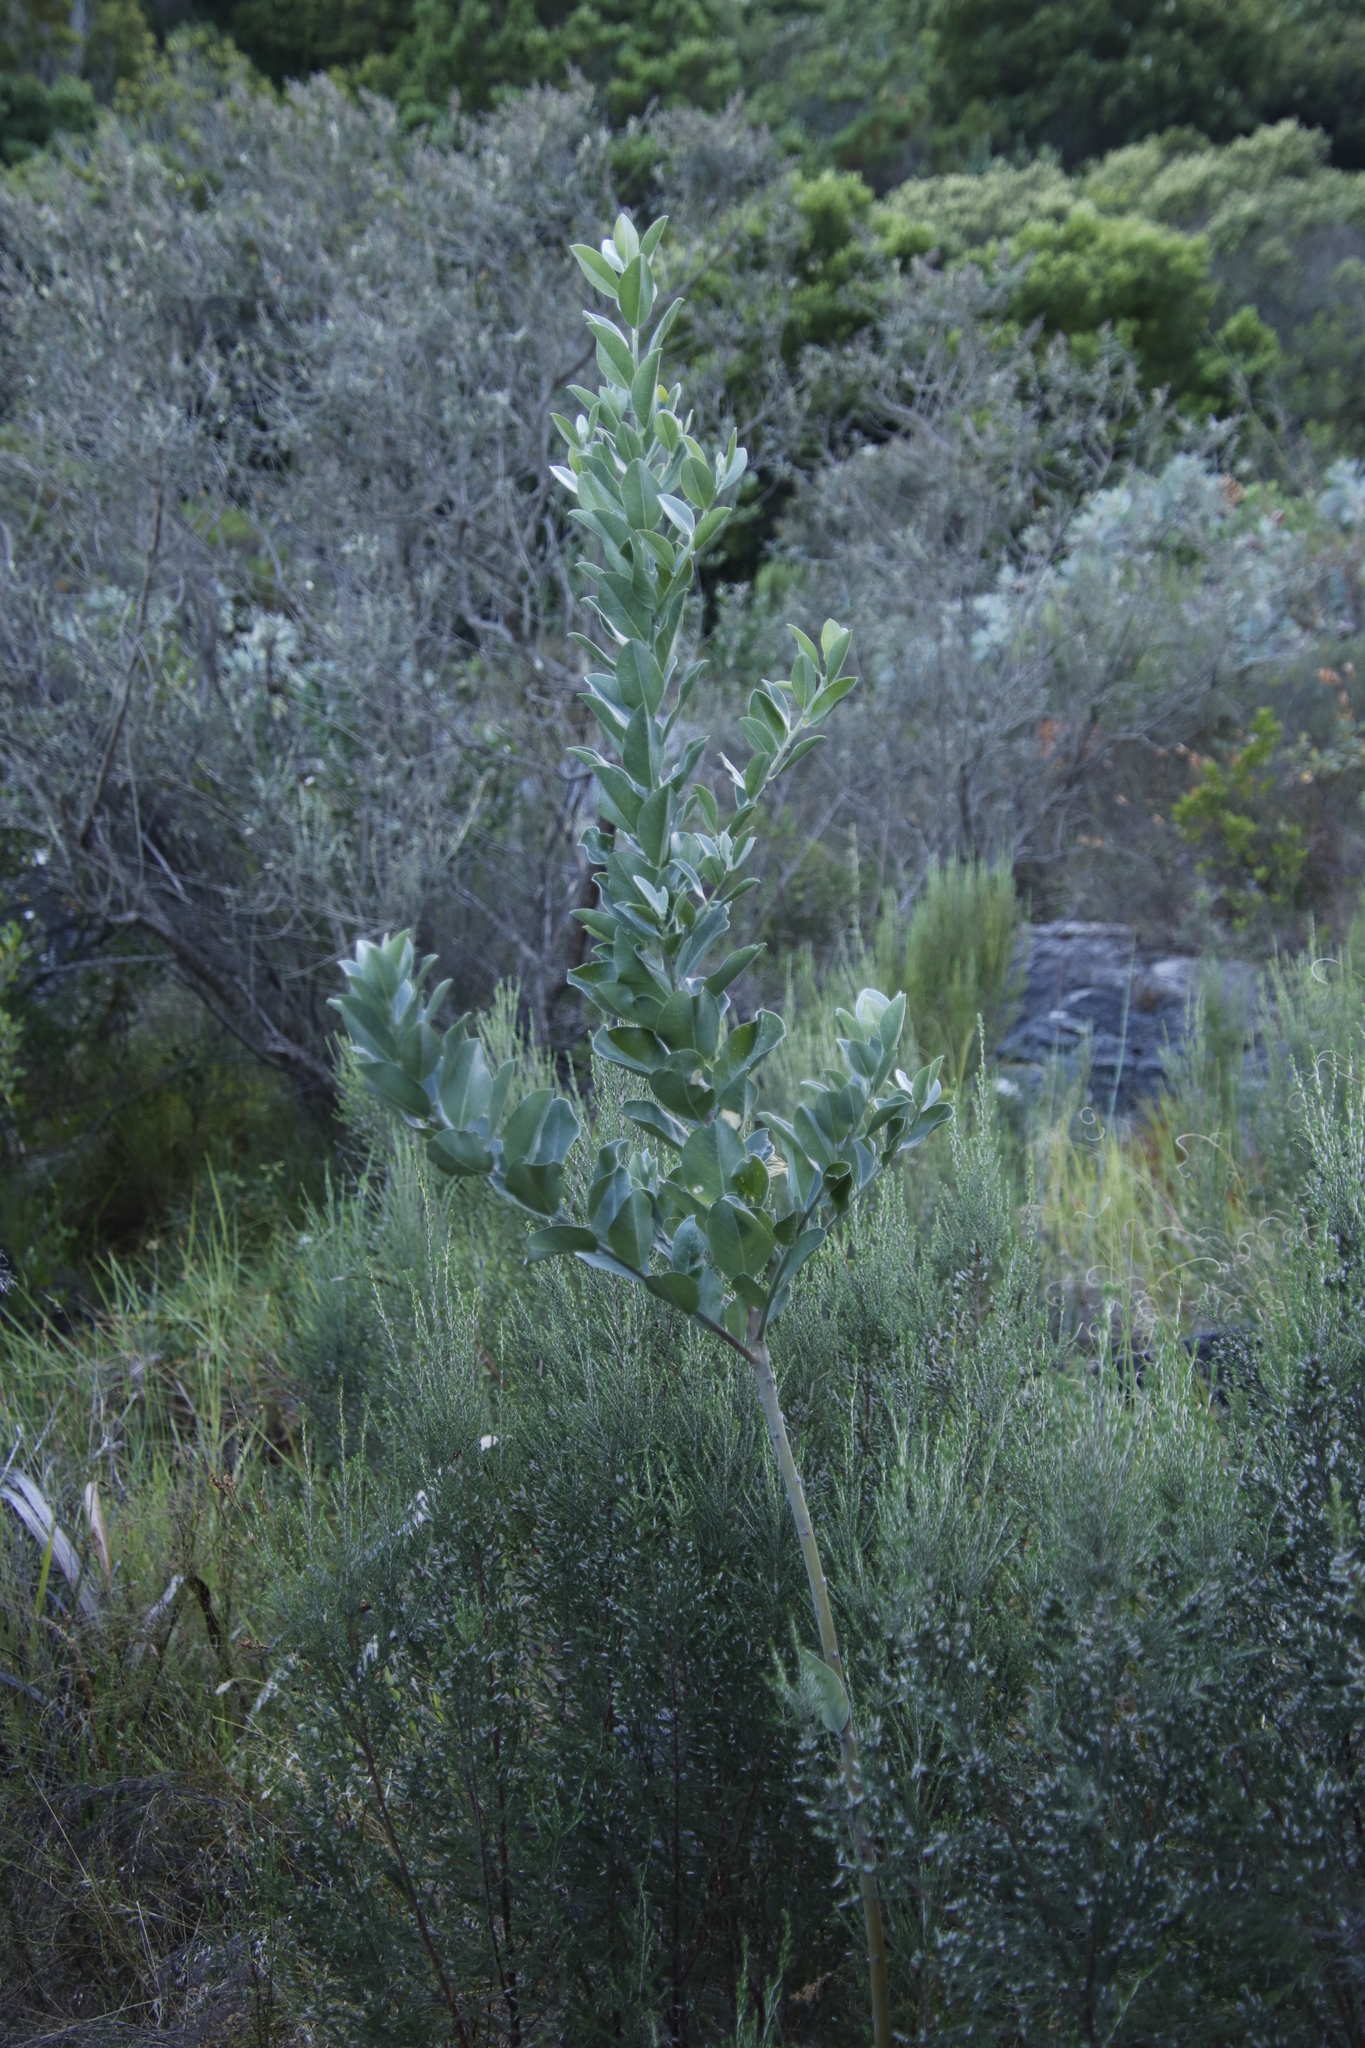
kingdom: Plantae
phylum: Tracheophyta
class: Magnoliopsida
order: Fabales
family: Fabaceae
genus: Podalyria
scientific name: Podalyria calyptrata
